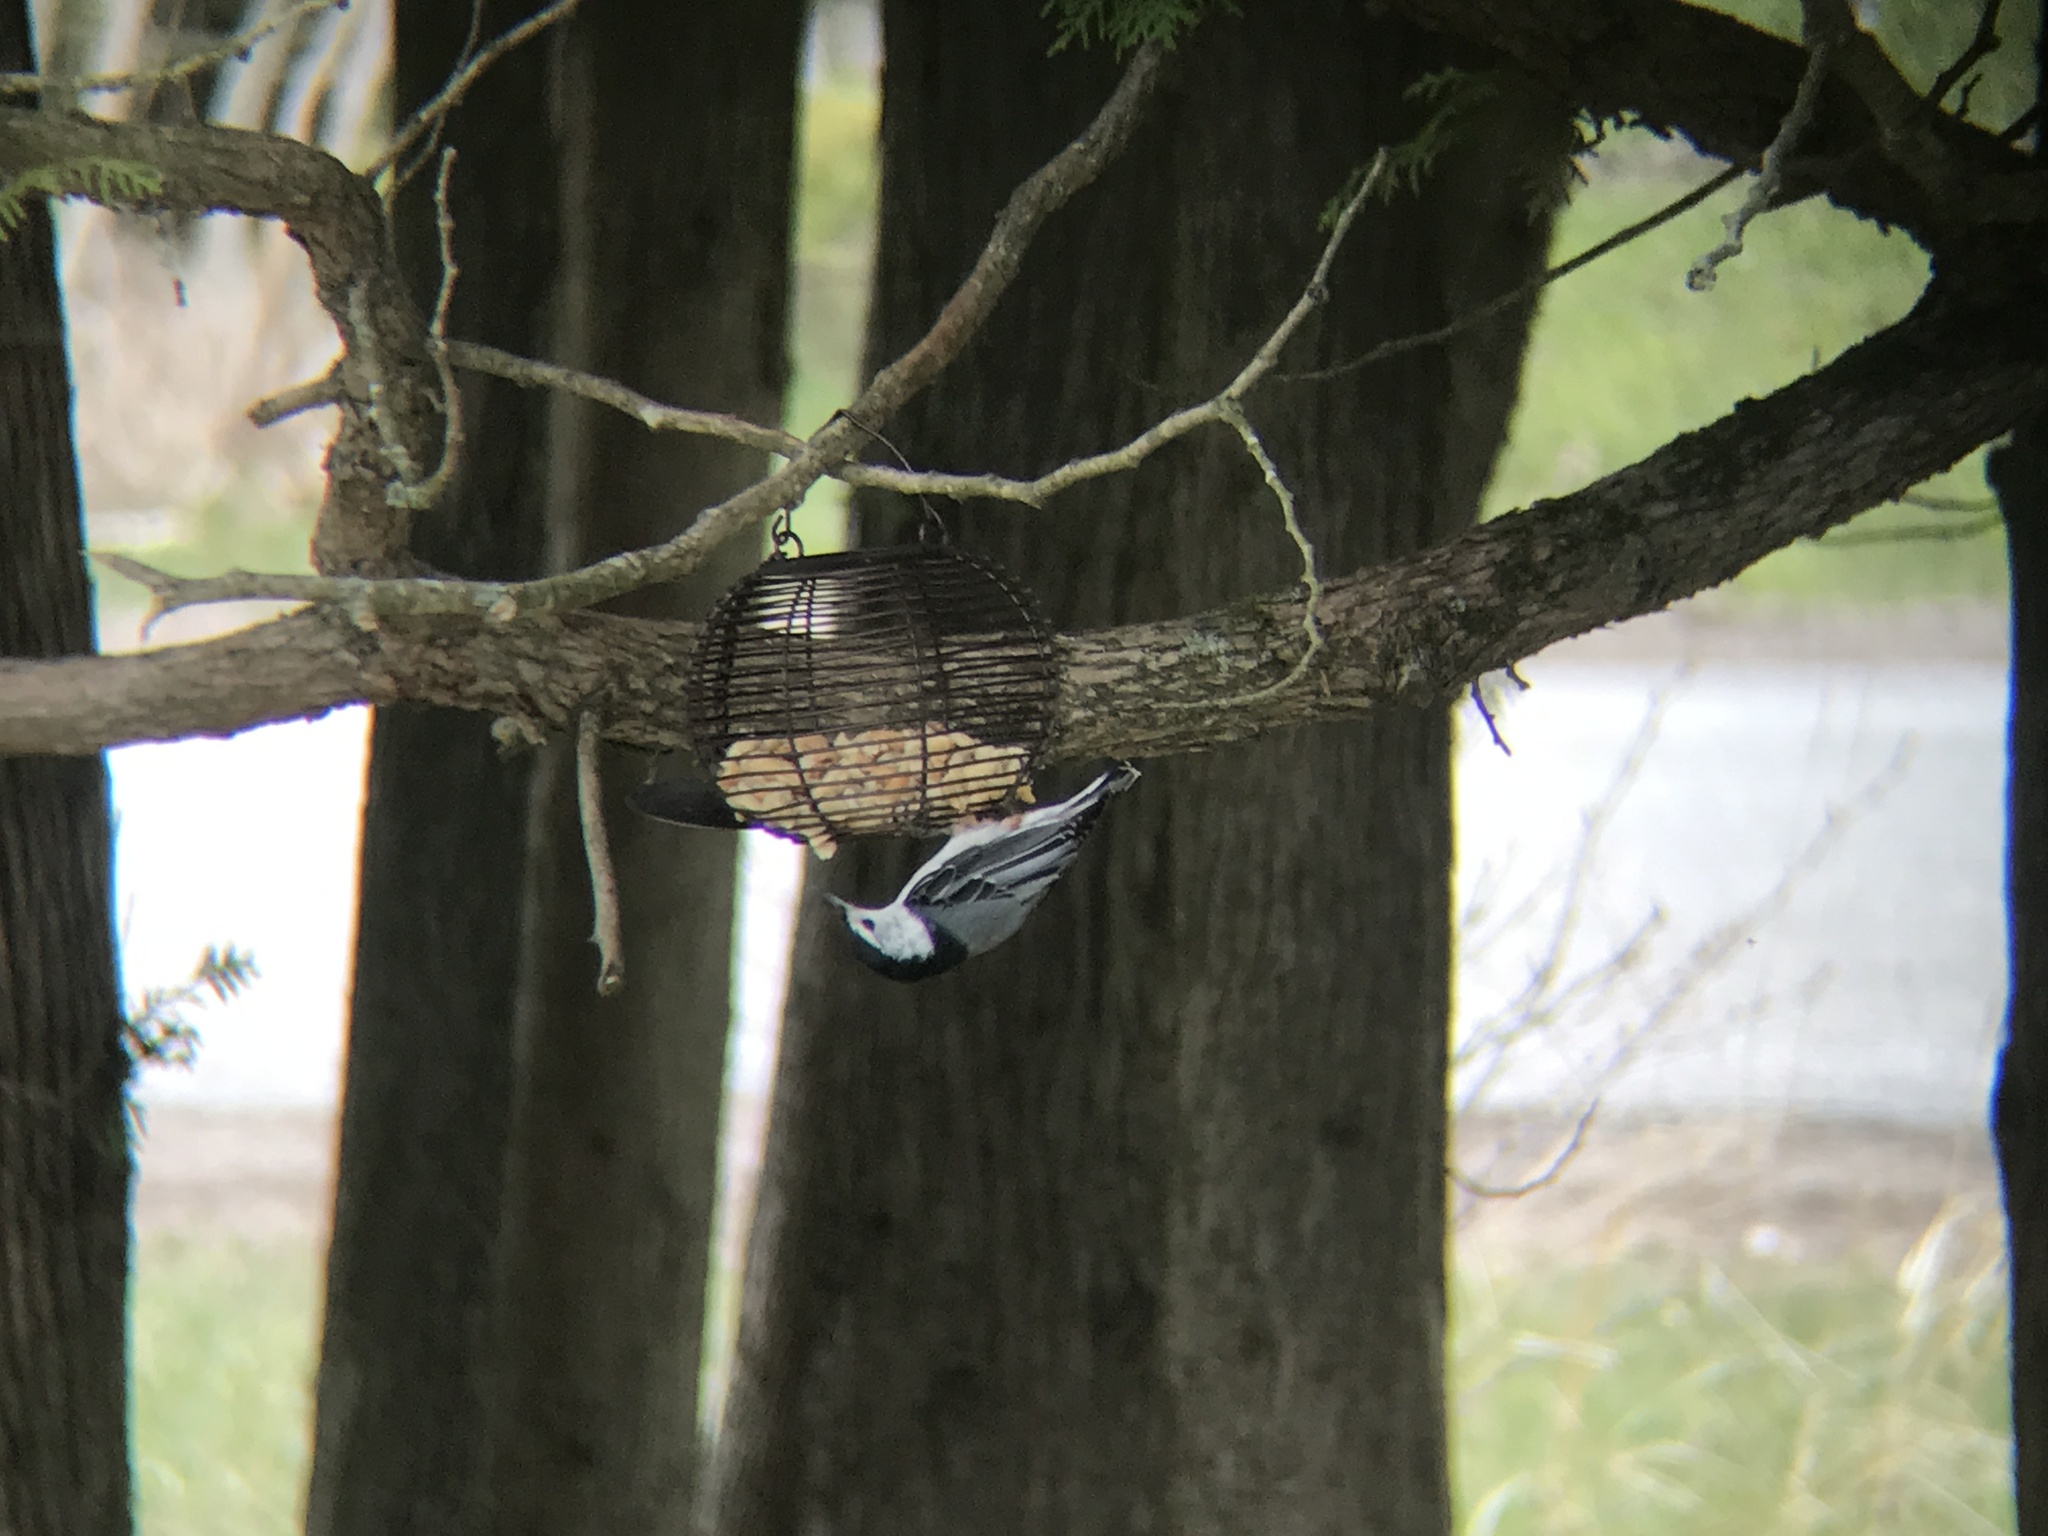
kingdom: Animalia
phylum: Chordata
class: Aves
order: Passeriformes
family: Sittidae
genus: Sitta
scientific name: Sitta carolinensis
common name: White-breasted nuthatch
